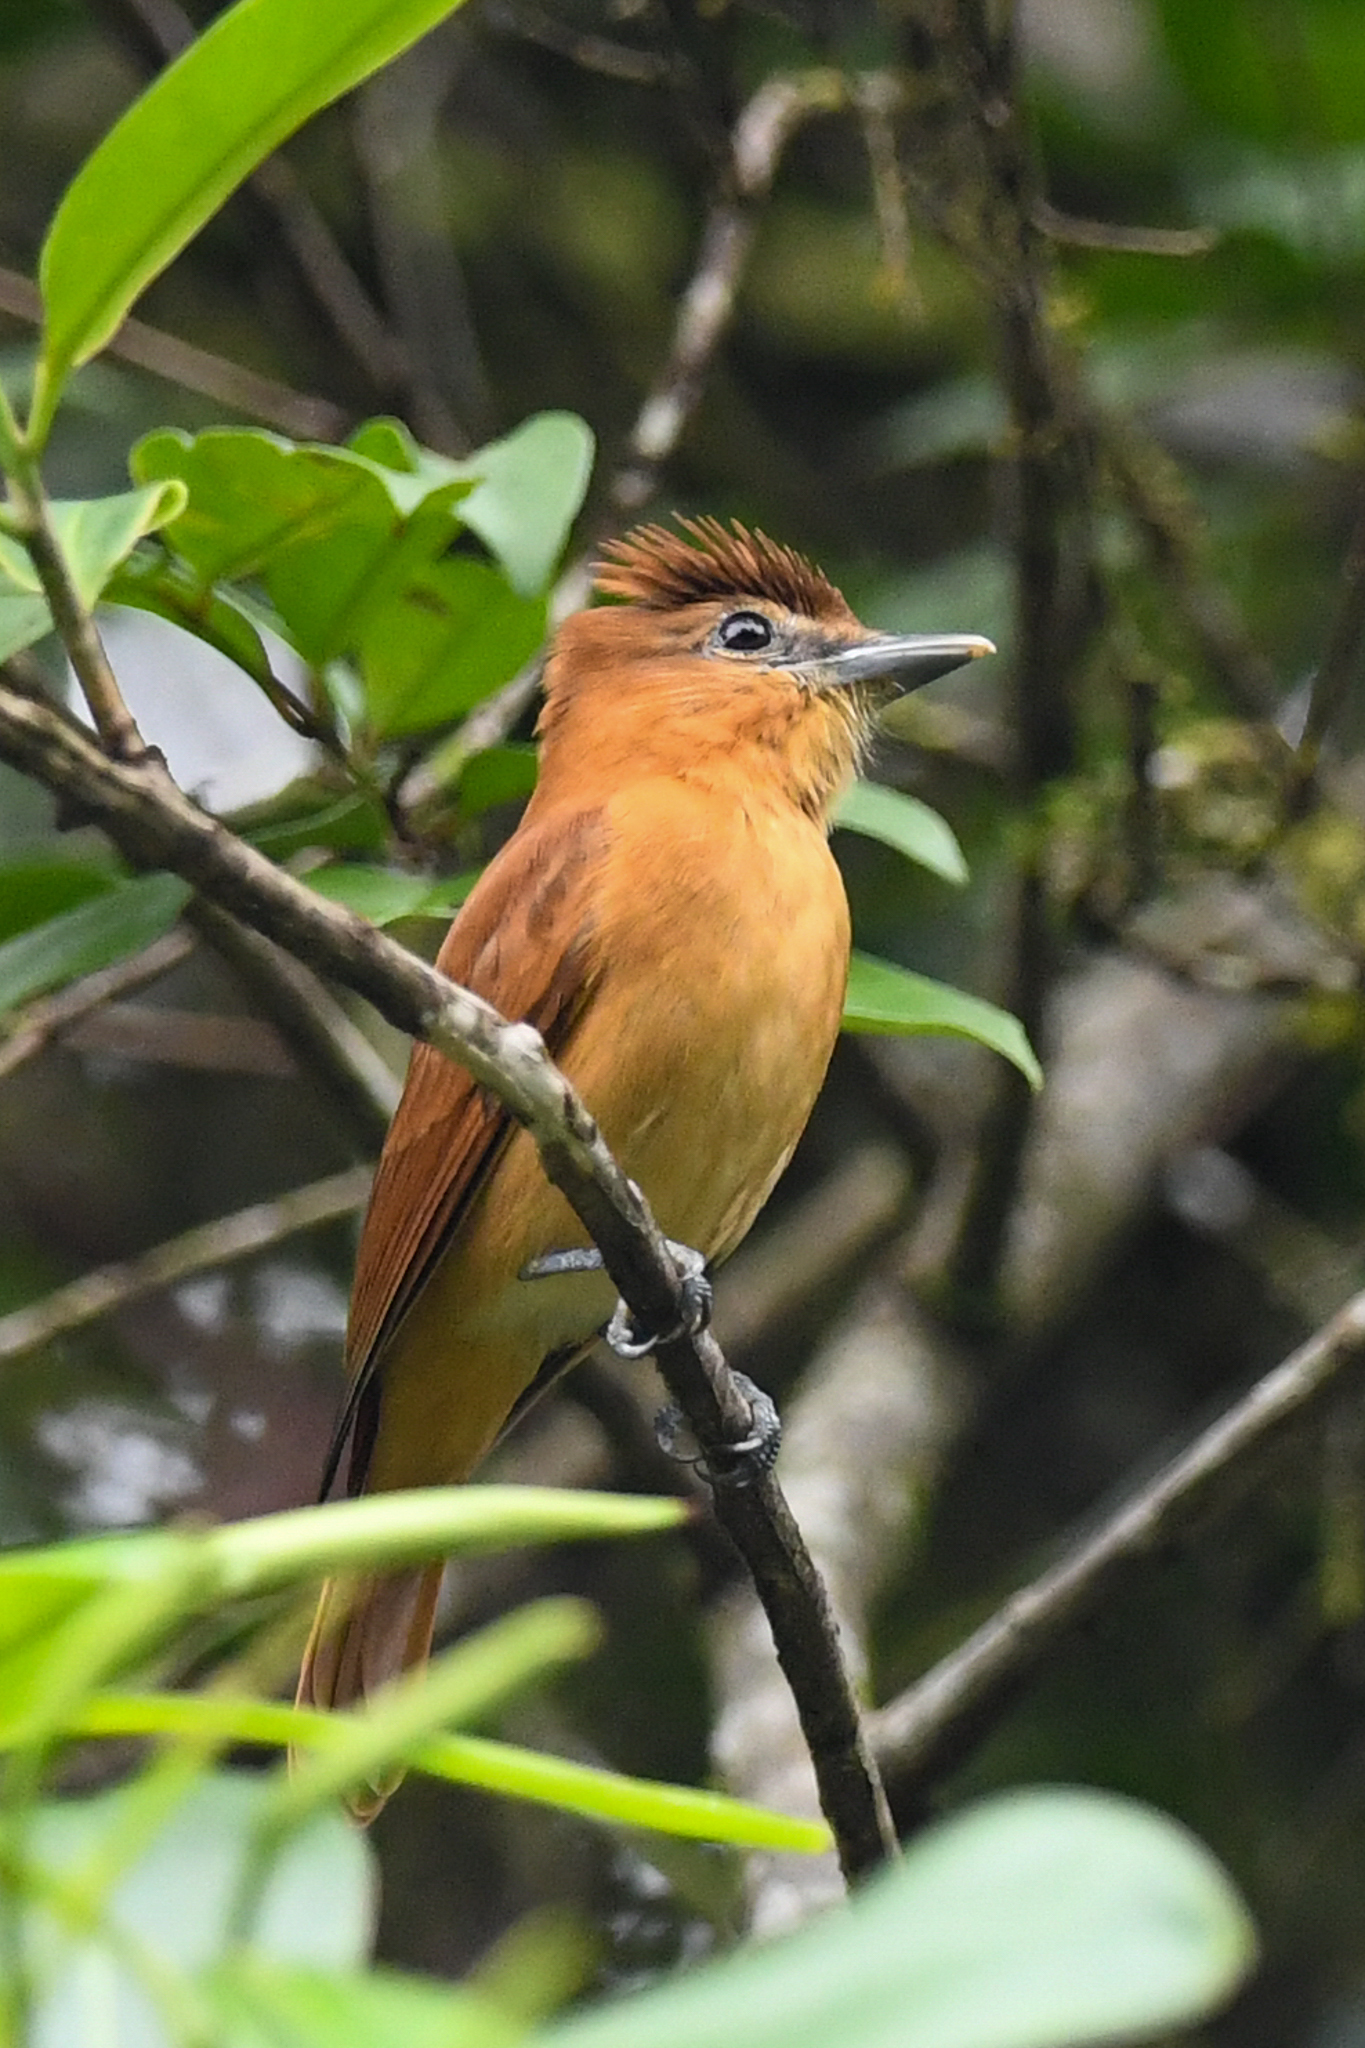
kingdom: Animalia
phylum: Chordata
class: Aves
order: Passeriformes
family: Cotingidae
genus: Pachyramphus
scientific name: Pachyramphus cinnamomeus
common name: Cinnamon becard
